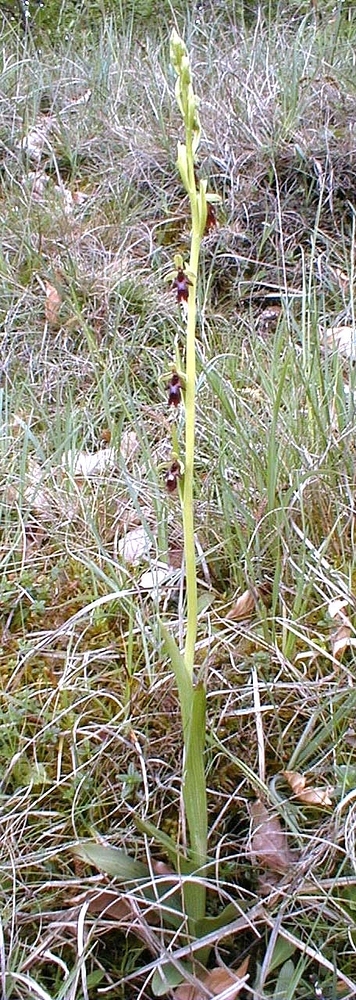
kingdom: Plantae
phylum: Tracheophyta
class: Liliopsida
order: Asparagales
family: Orchidaceae
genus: Ophrys
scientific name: Ophrys insectifera
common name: Fly orchid
